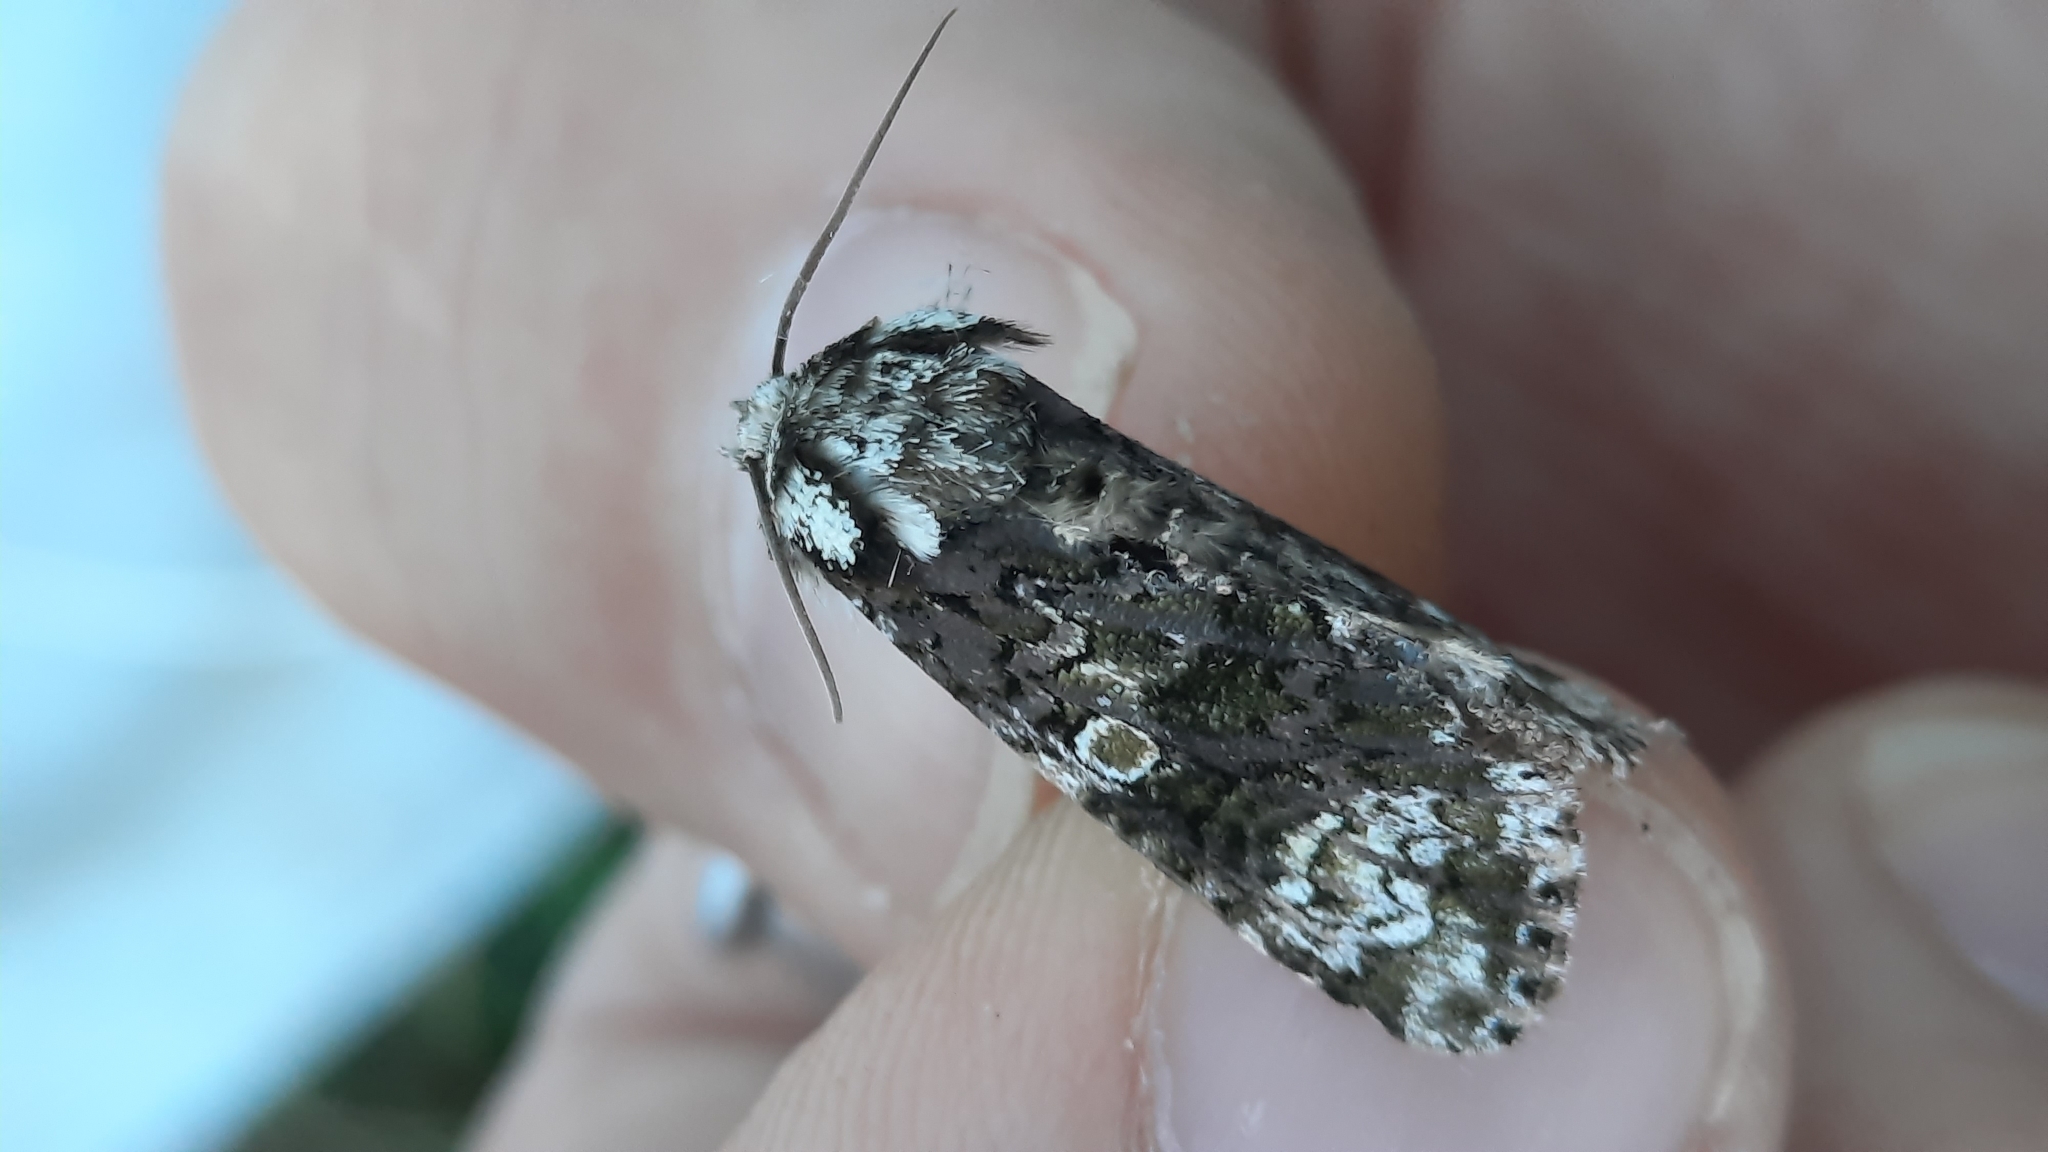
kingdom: Animalia
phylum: Arthropoda
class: Insecta
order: Lepidoptera
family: Noctuidae
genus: Craniophora
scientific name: Craniophora ligustri
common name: Coronet
